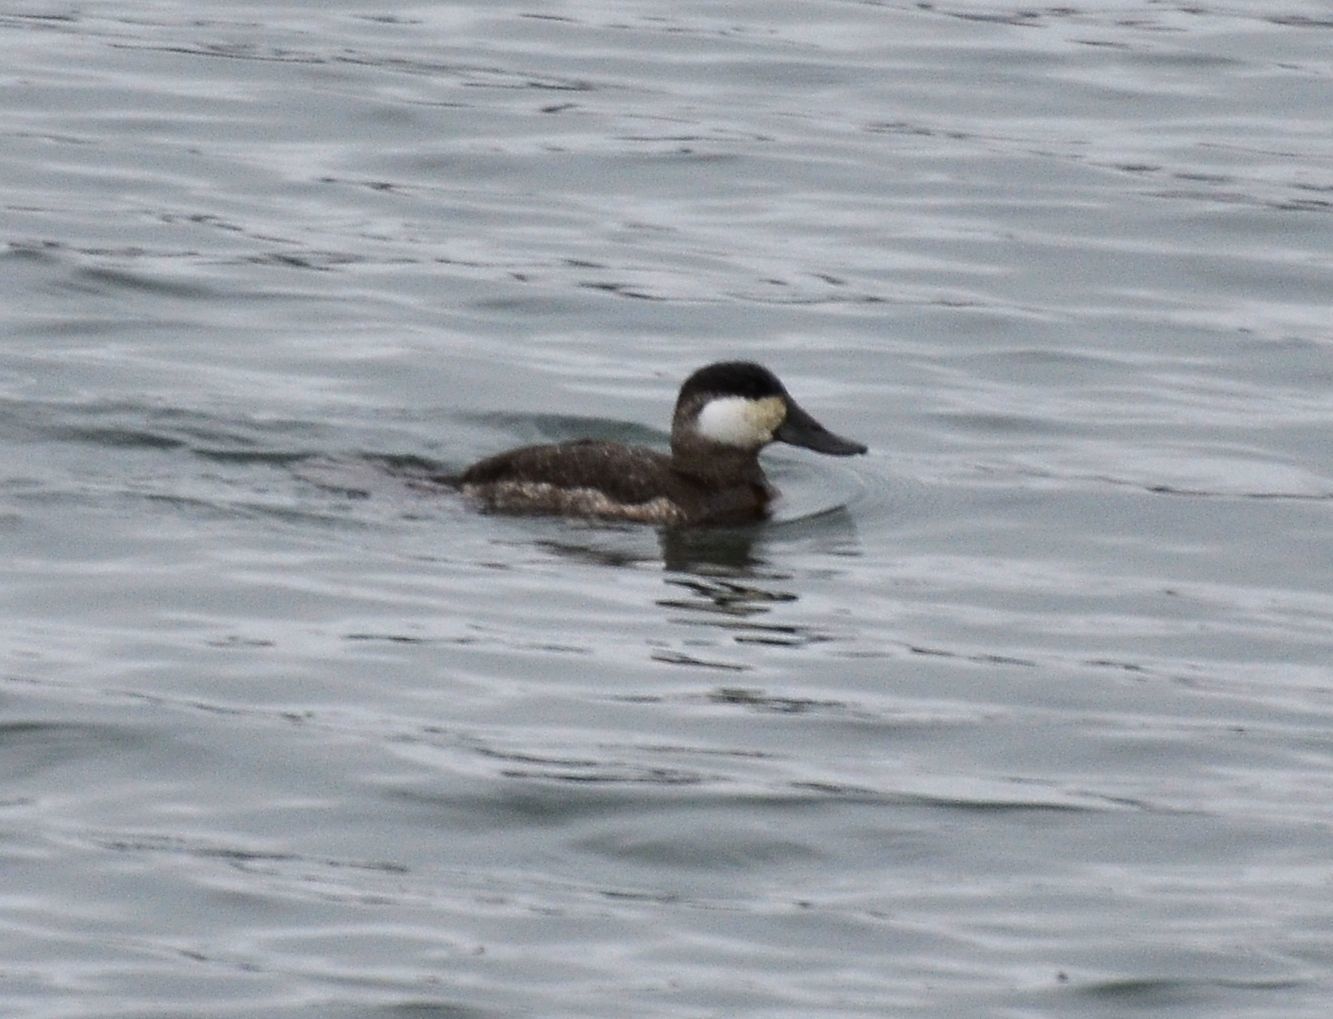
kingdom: Animalia
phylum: Chordata
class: Aves
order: Anseriformes
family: Anatidae
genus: Oxyura
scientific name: Oxyura jamaicensis
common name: Ruddy duck
